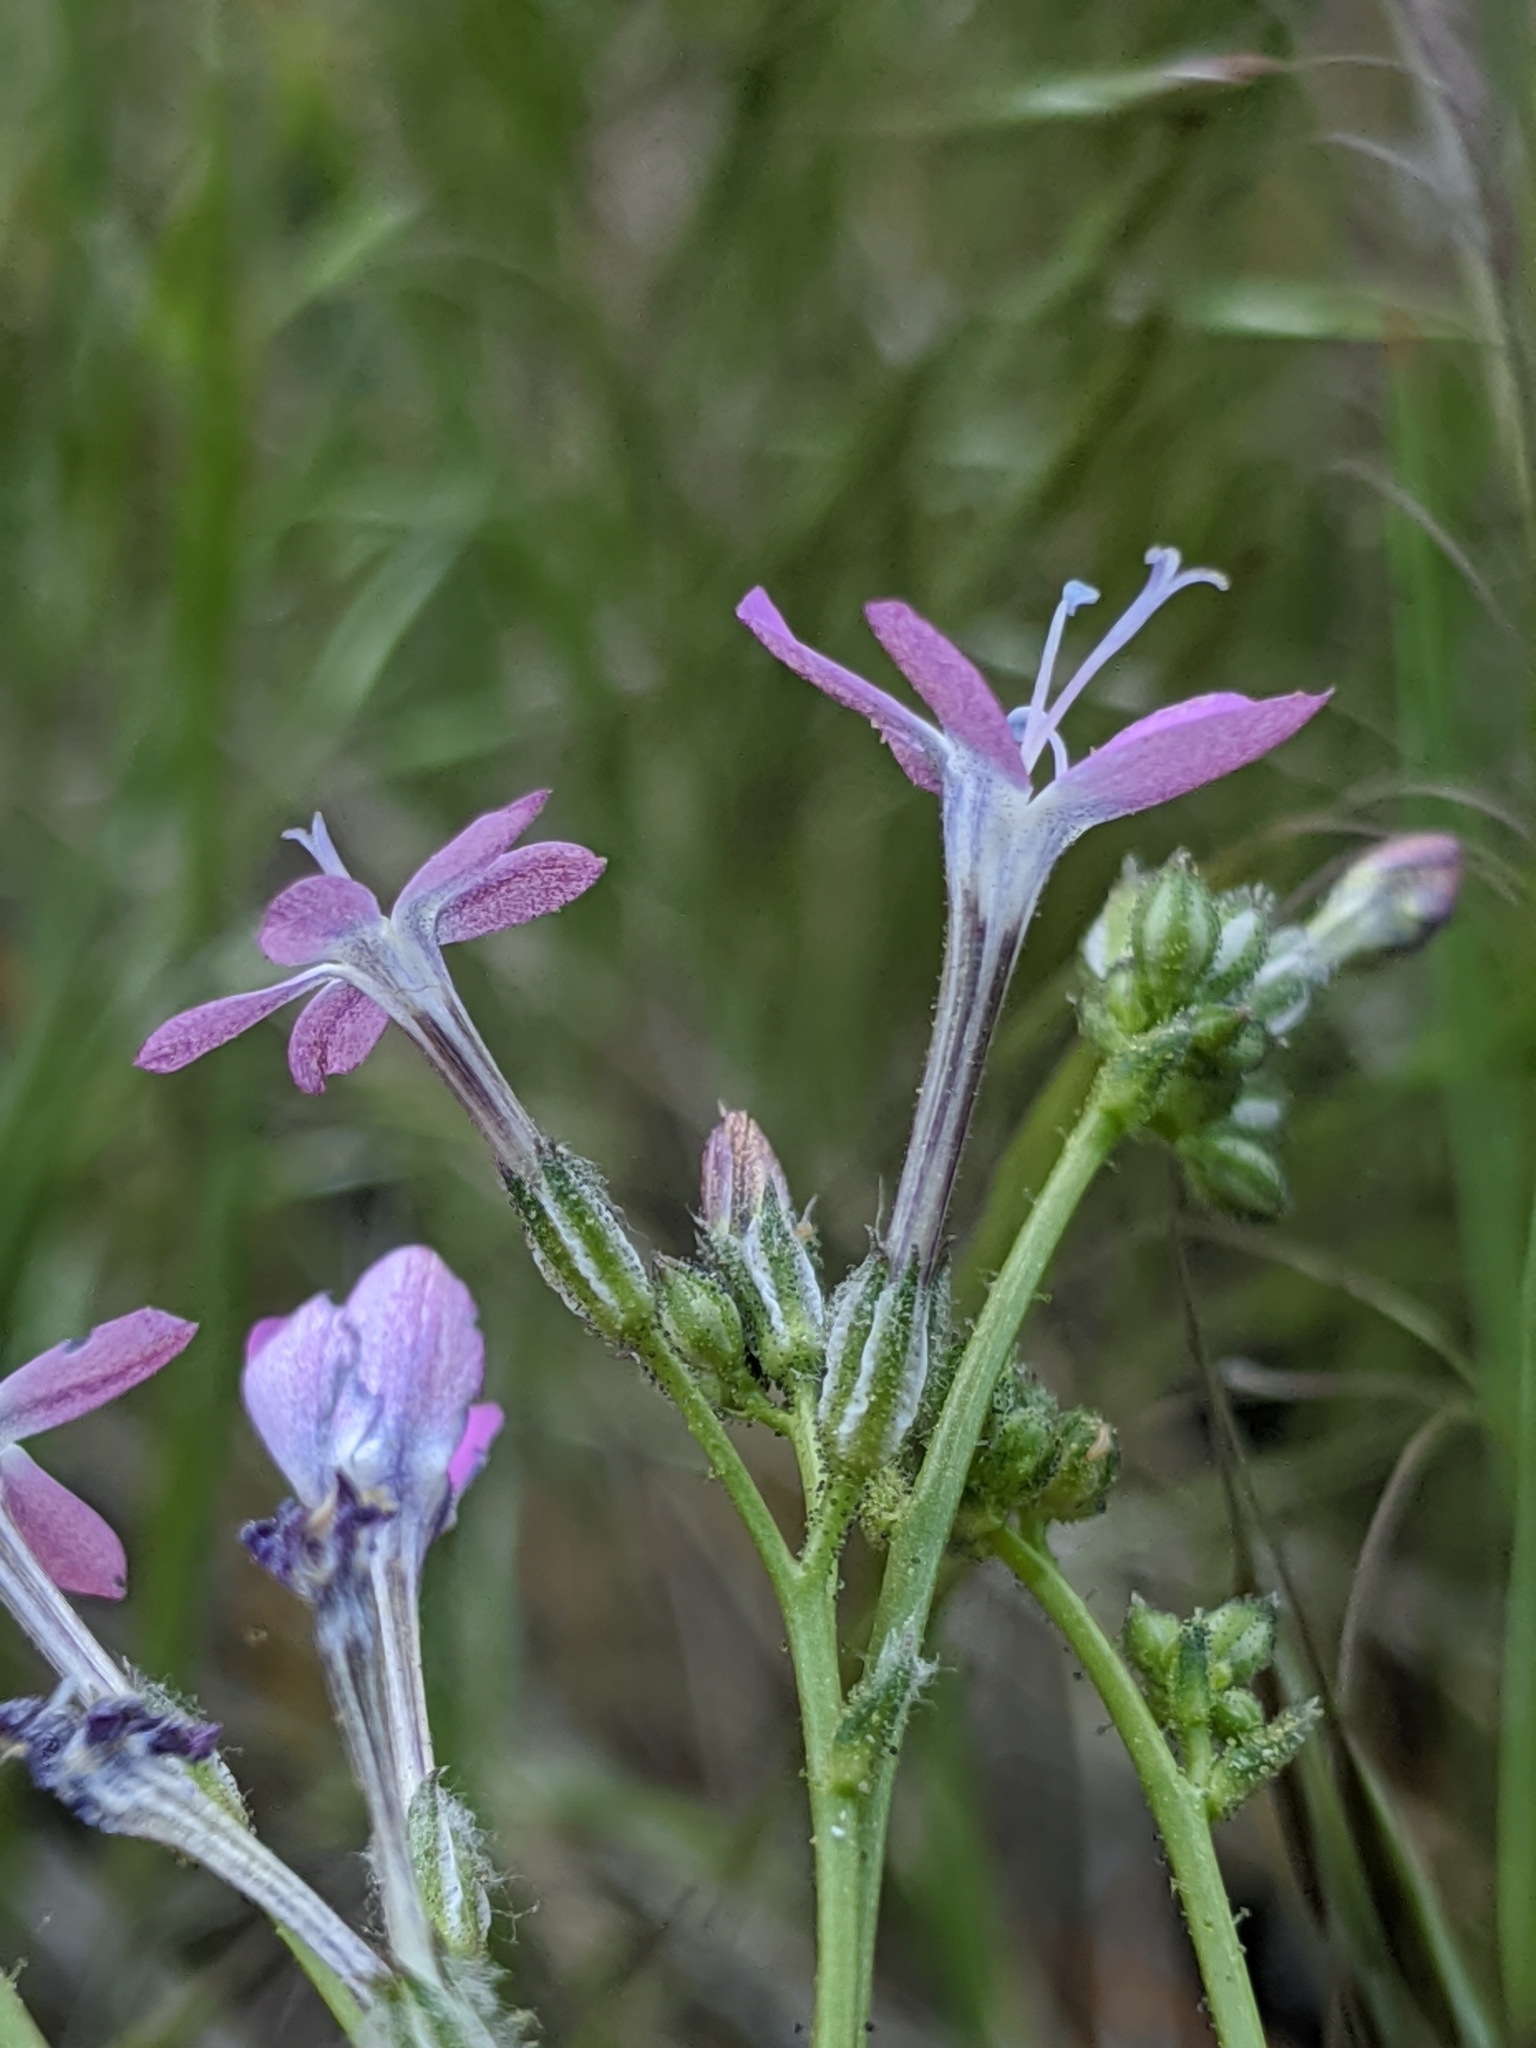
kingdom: Plantae
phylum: Tracheophyta
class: Magnoliopsida
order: Ericales
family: Polemoniaceae
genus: Gilia
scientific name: Gilia leptantha
